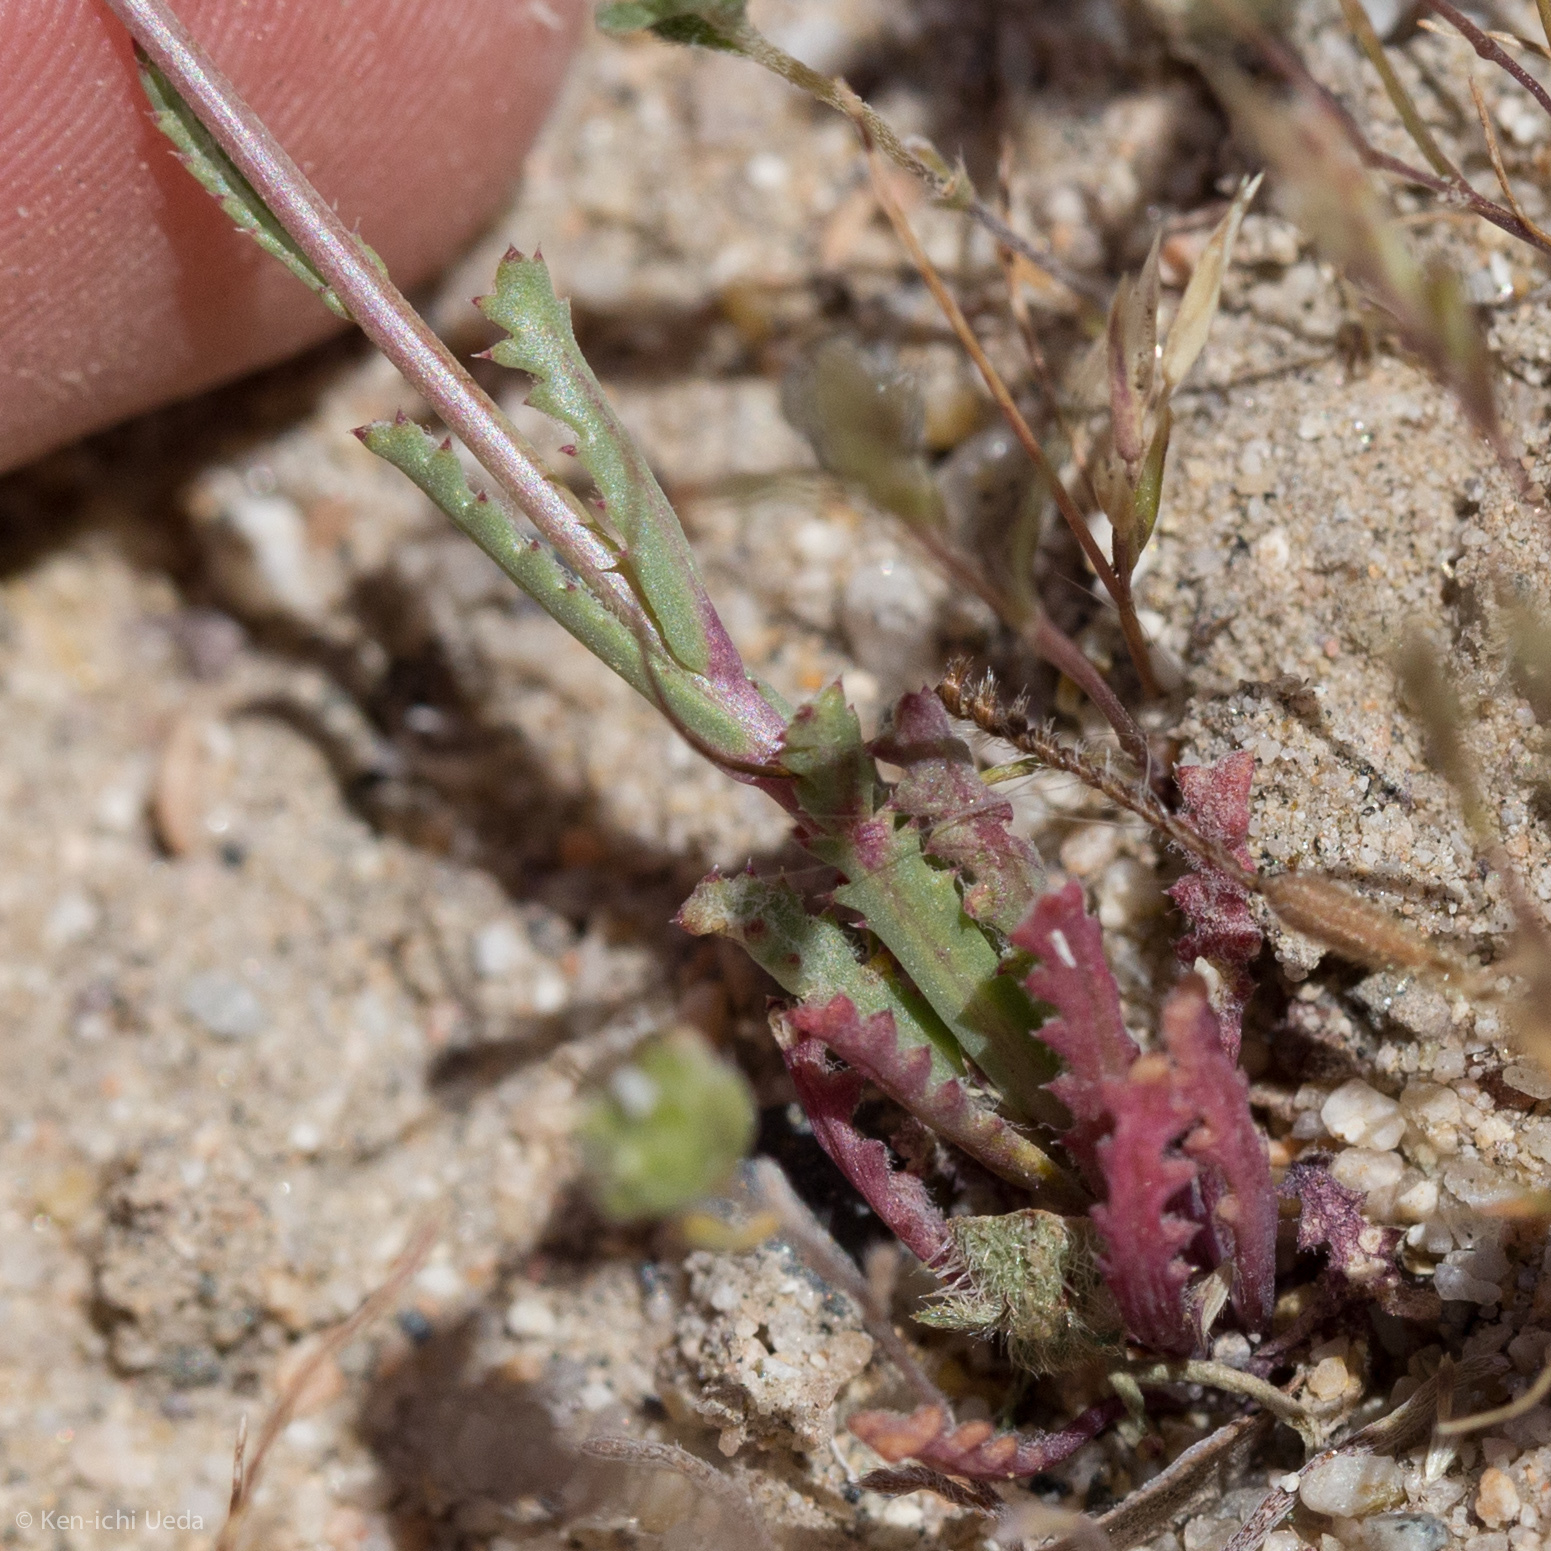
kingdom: Plantae
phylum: Tracheophyta
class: Magnoliopsida
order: Ericales
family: Polemoniaceae
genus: Gilia
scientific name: Gilia sinuata
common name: Rosy gilia
